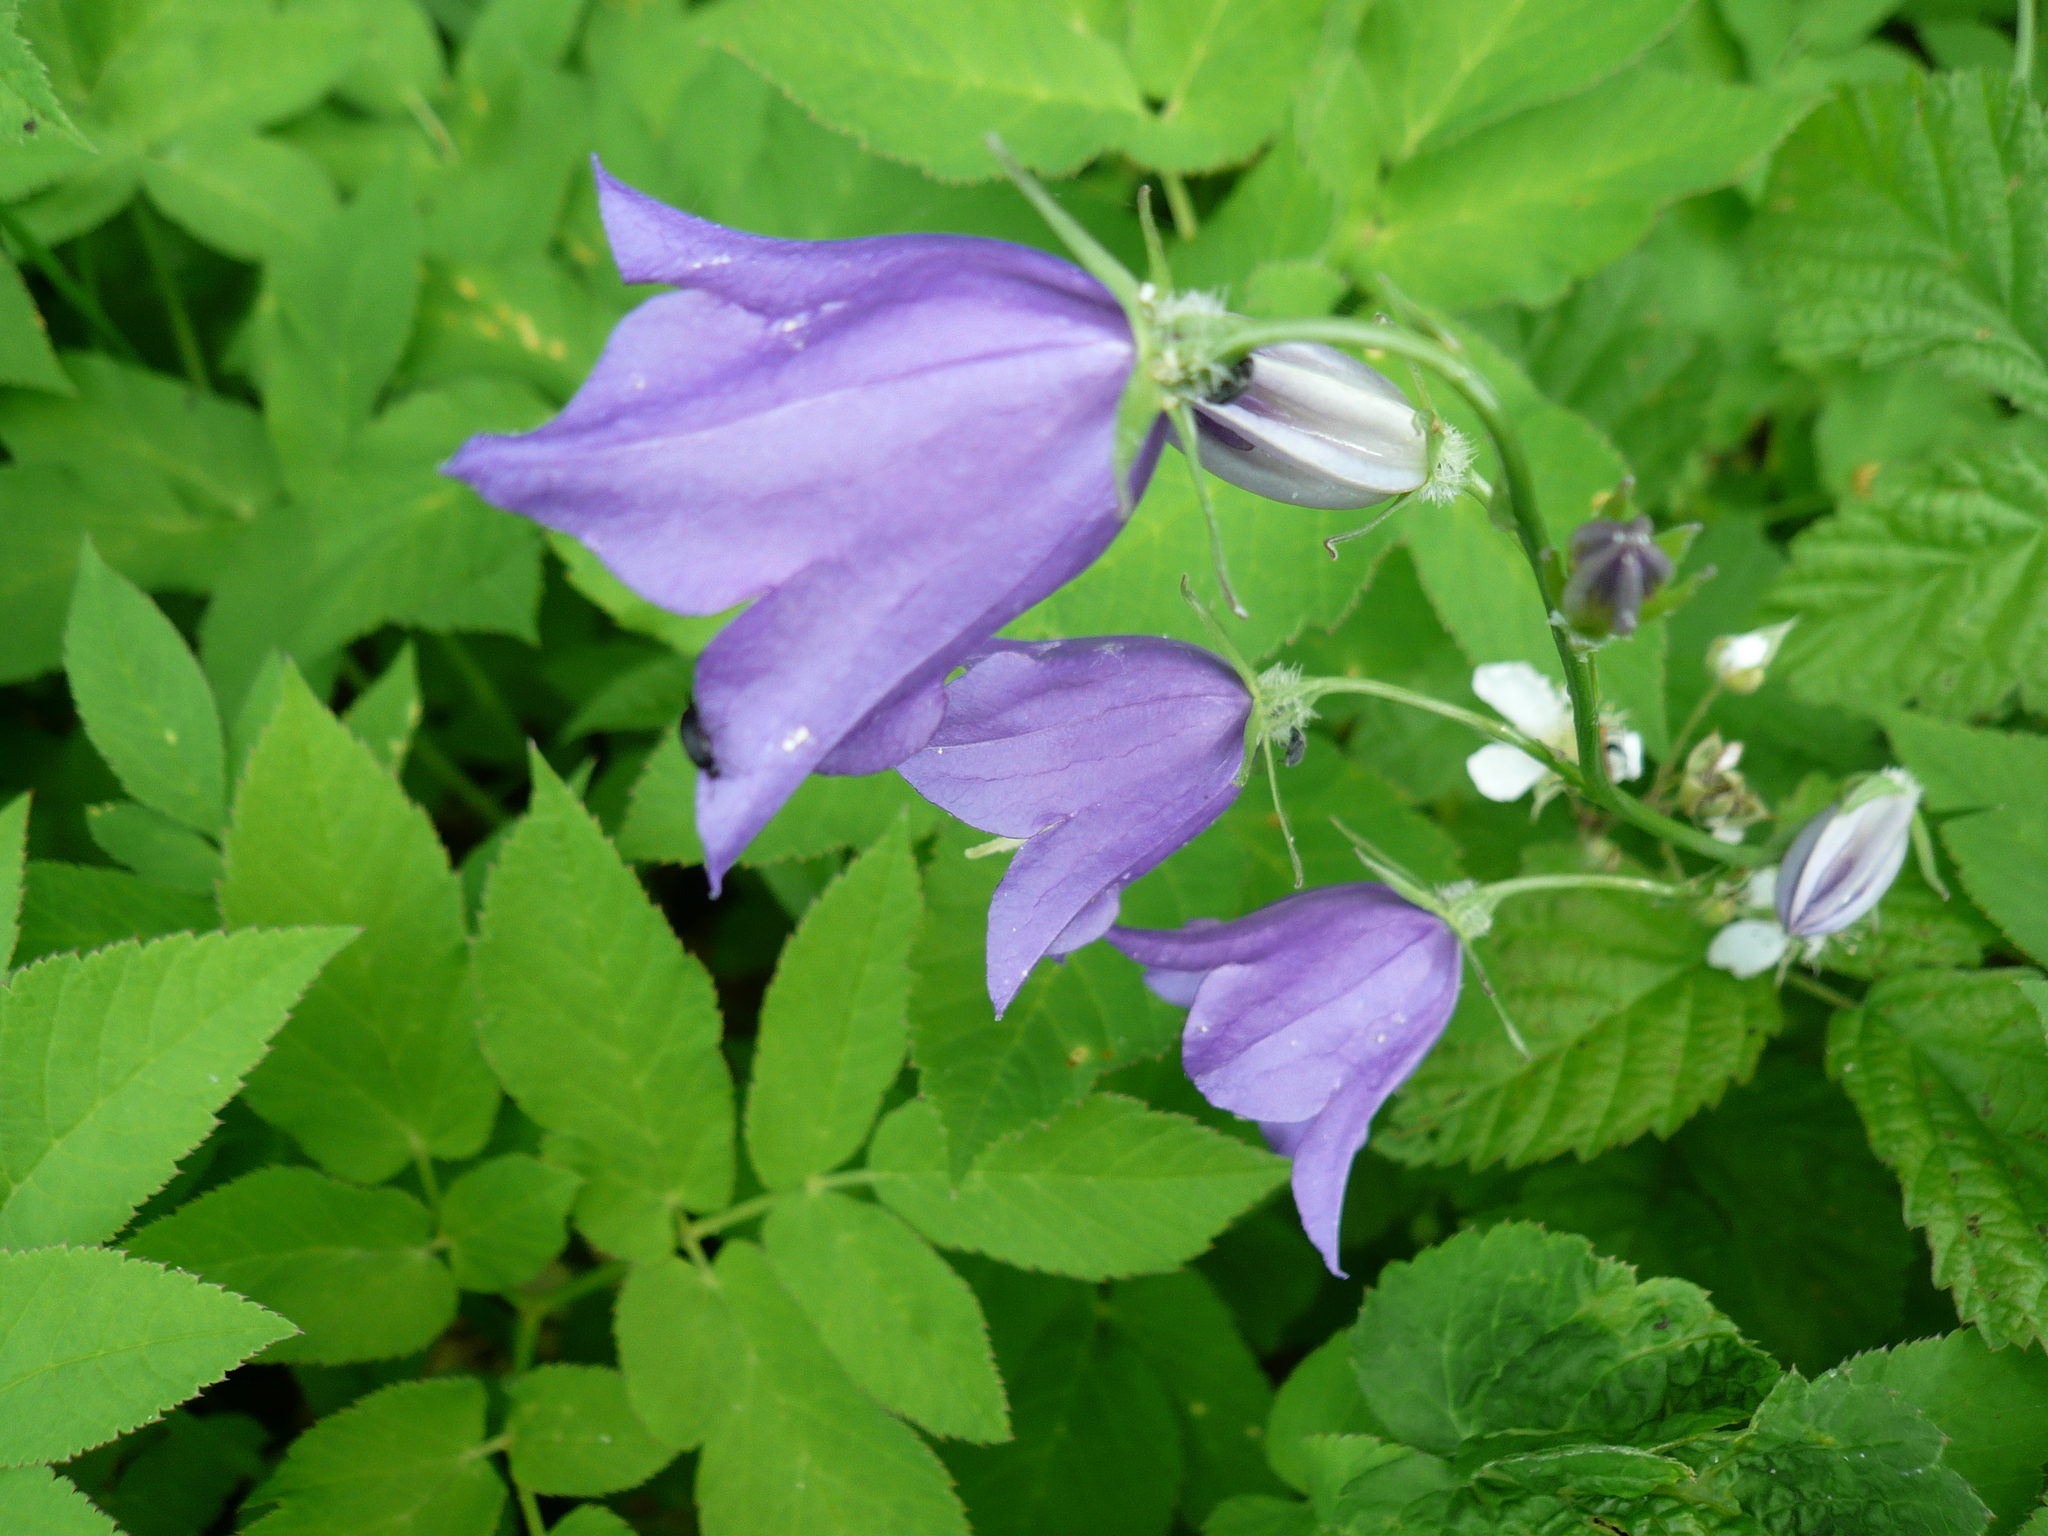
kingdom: Plantae
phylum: Tracheophyta
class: Magnoliopsida
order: Asterales
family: Campanulaceae
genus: Campanula
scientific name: Campanula persicifolia
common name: Peach-leaved bellflower
